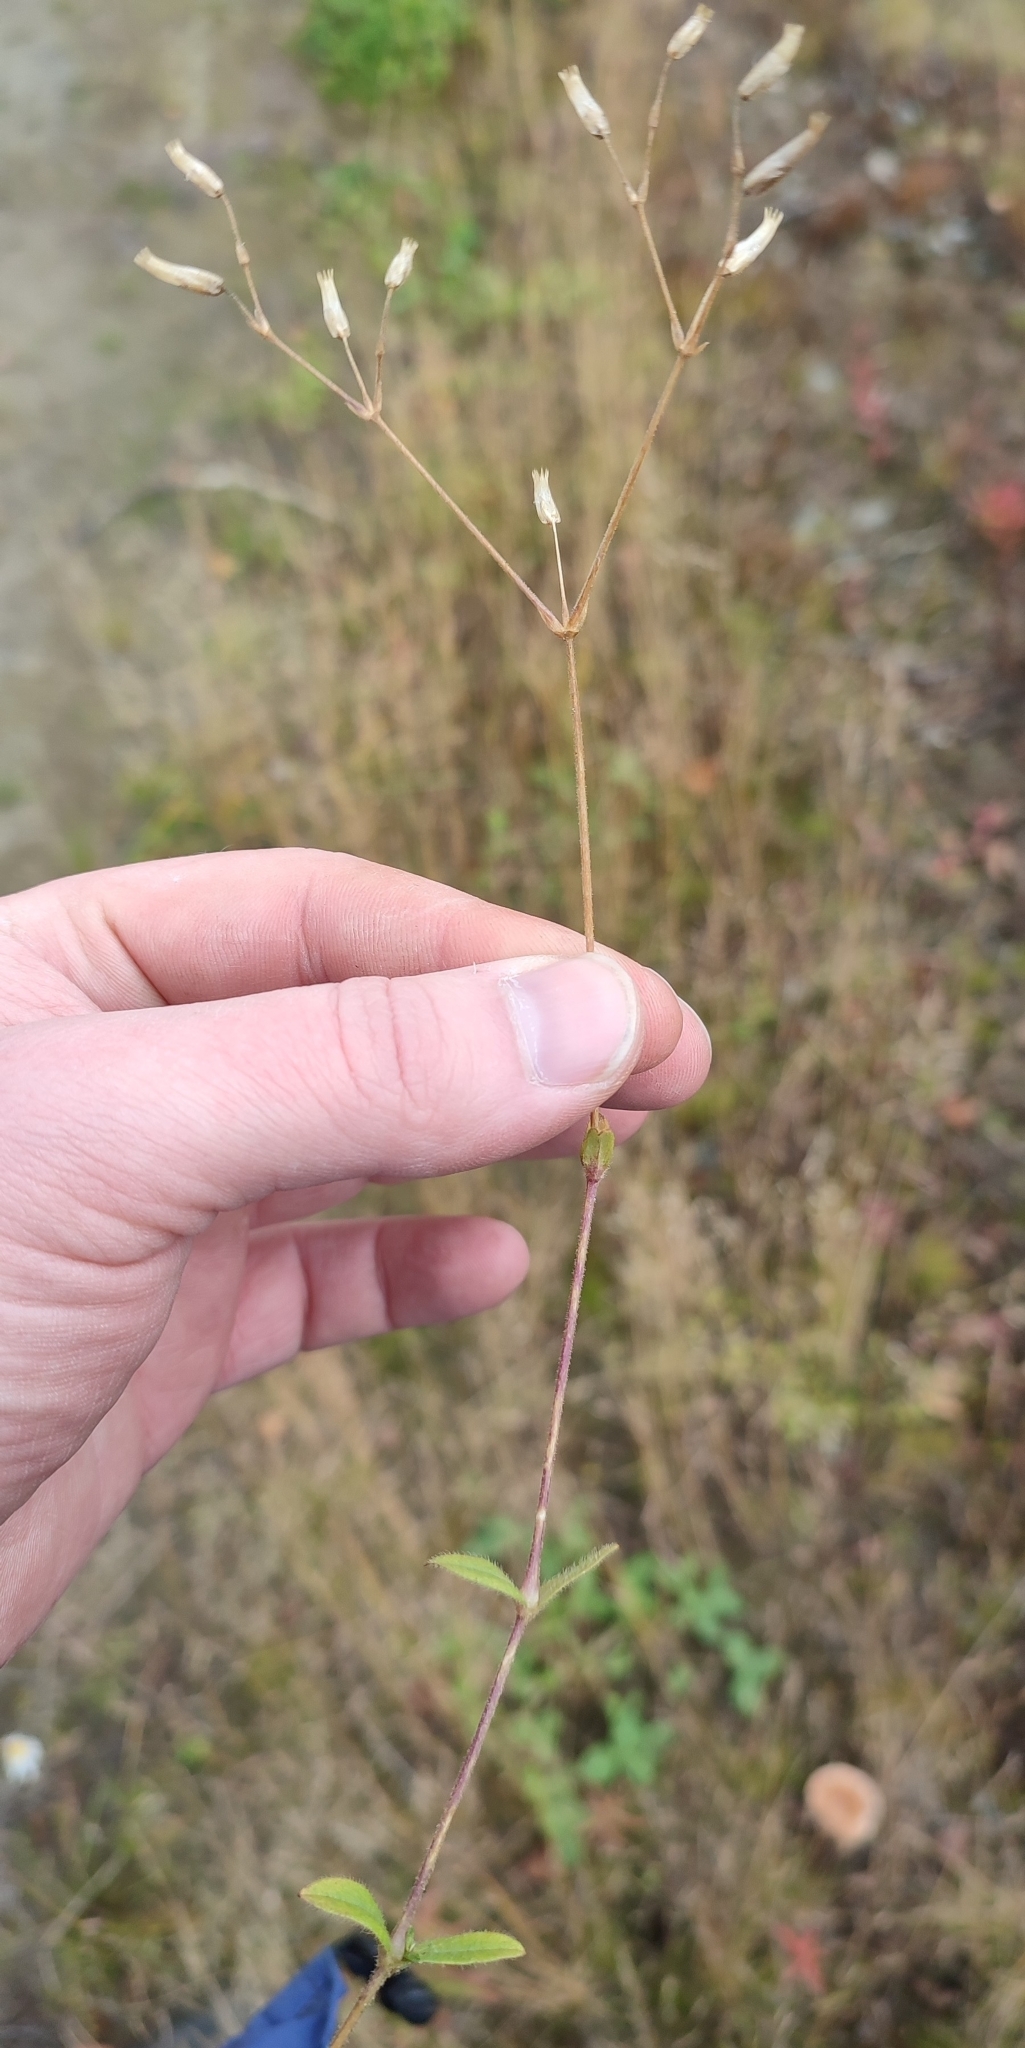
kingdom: Plantae
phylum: Tracheophyta
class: Magnoliopsida
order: Caryophyllales
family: Caryophyllaceae
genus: Cerastium
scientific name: Cerastium holosteoides
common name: Big chickweed
